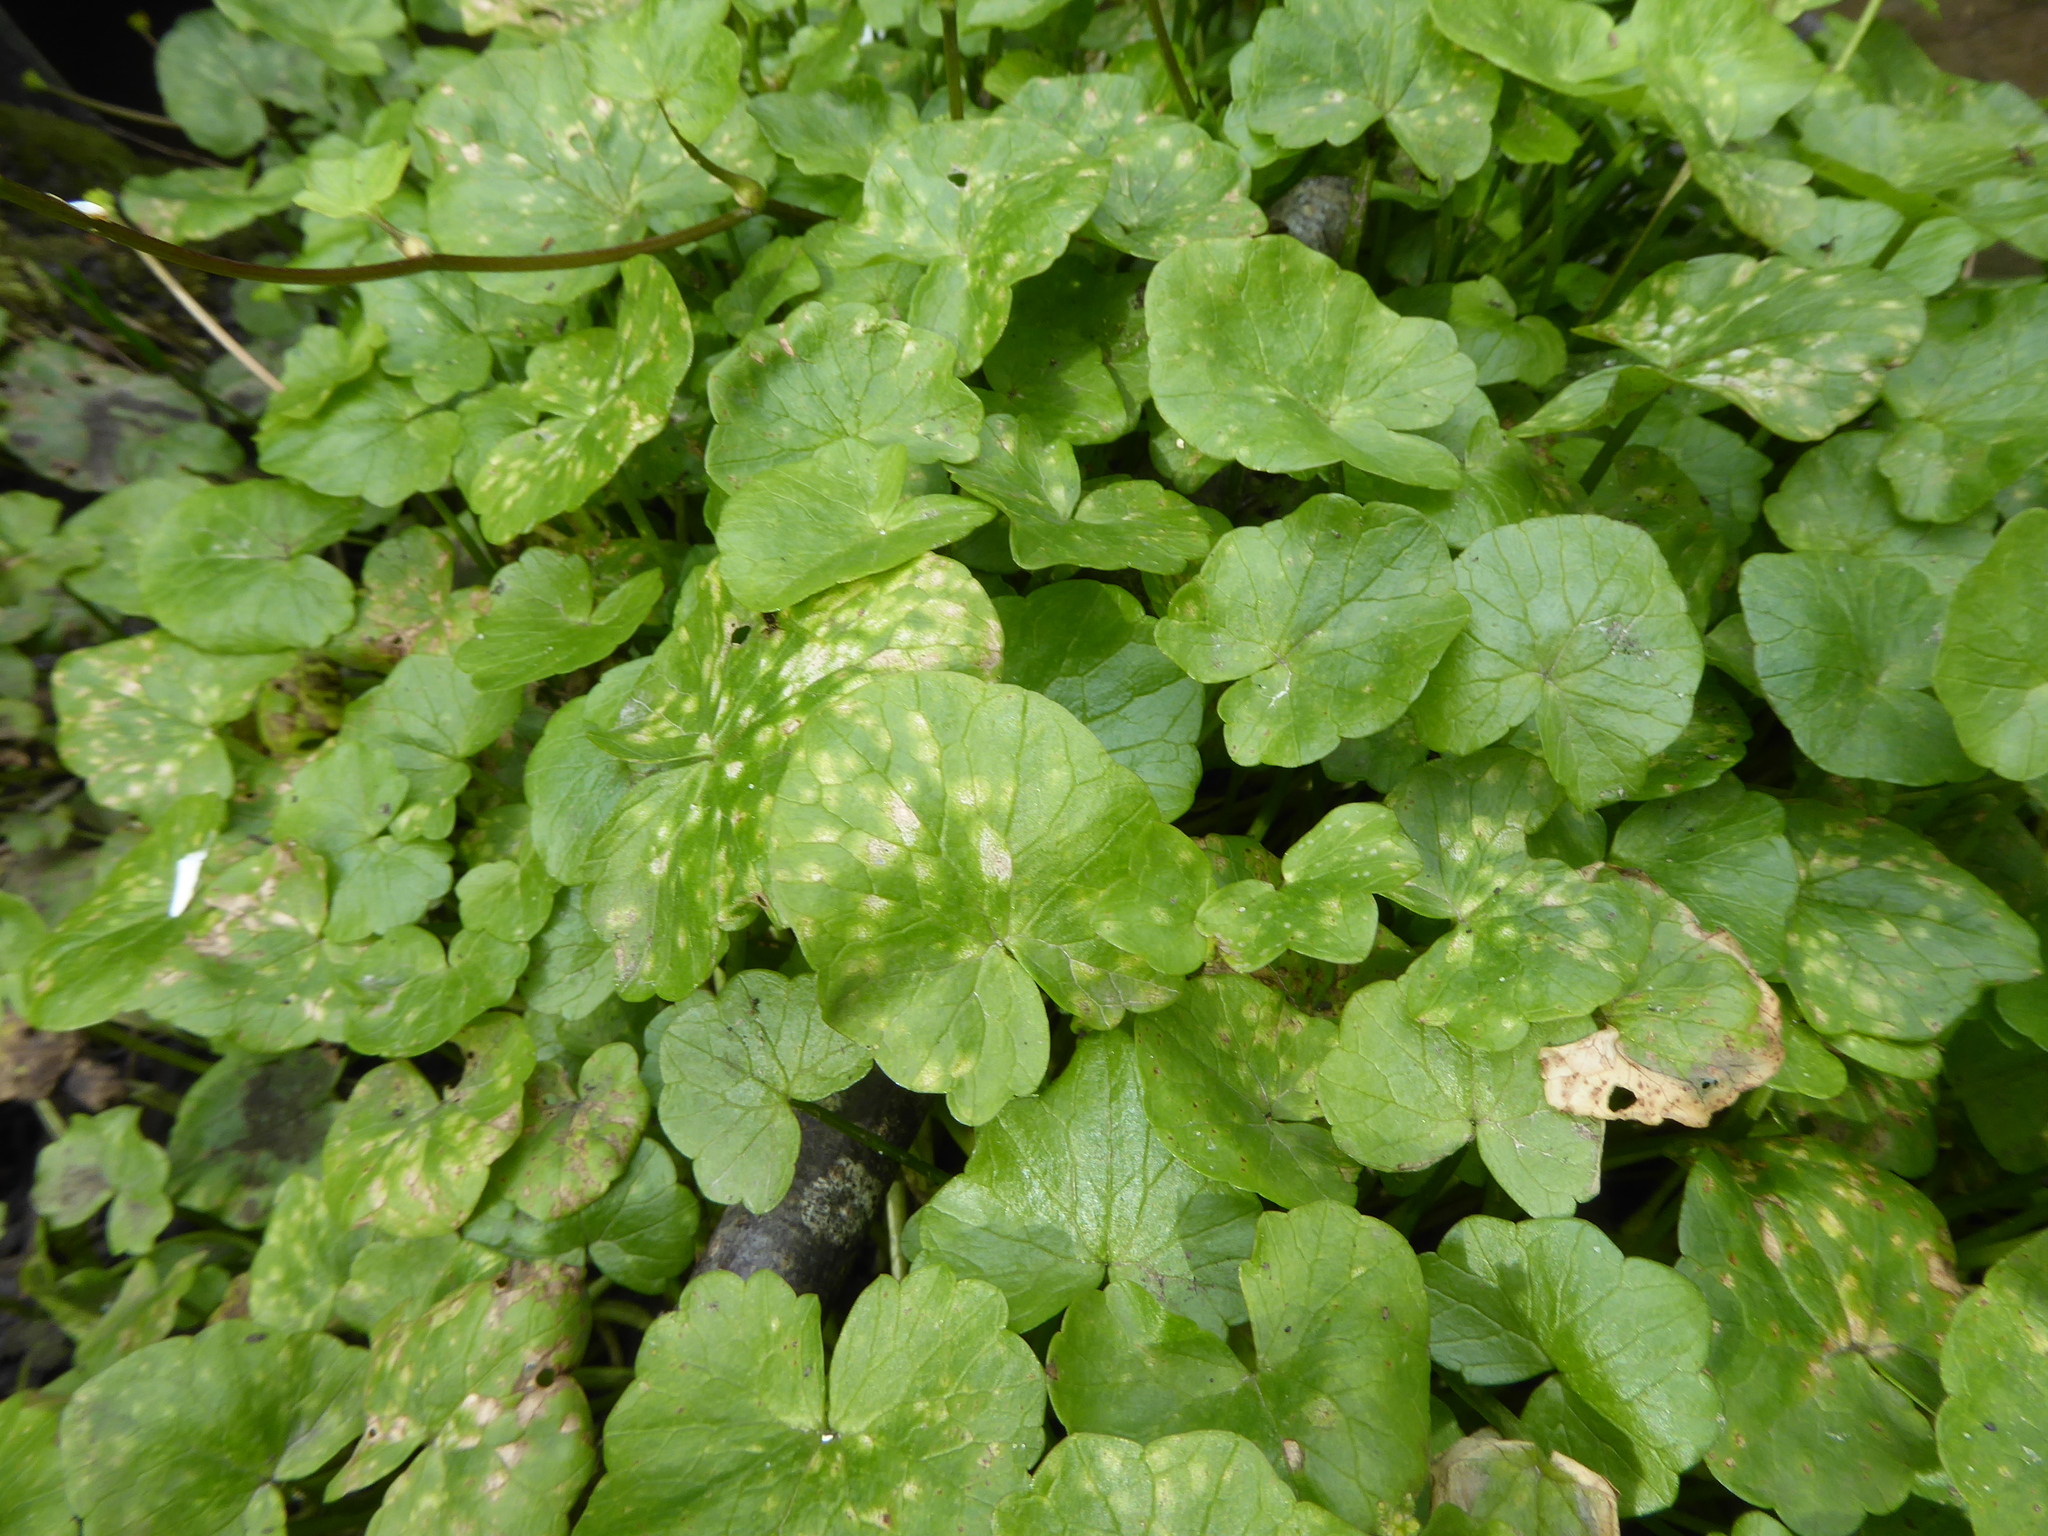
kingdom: Fungi
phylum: Basidiomycota
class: Exobasidiomycetes
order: Entylomatales
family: Entylomataceae
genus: Entyloma
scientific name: Entyloma ficariae
